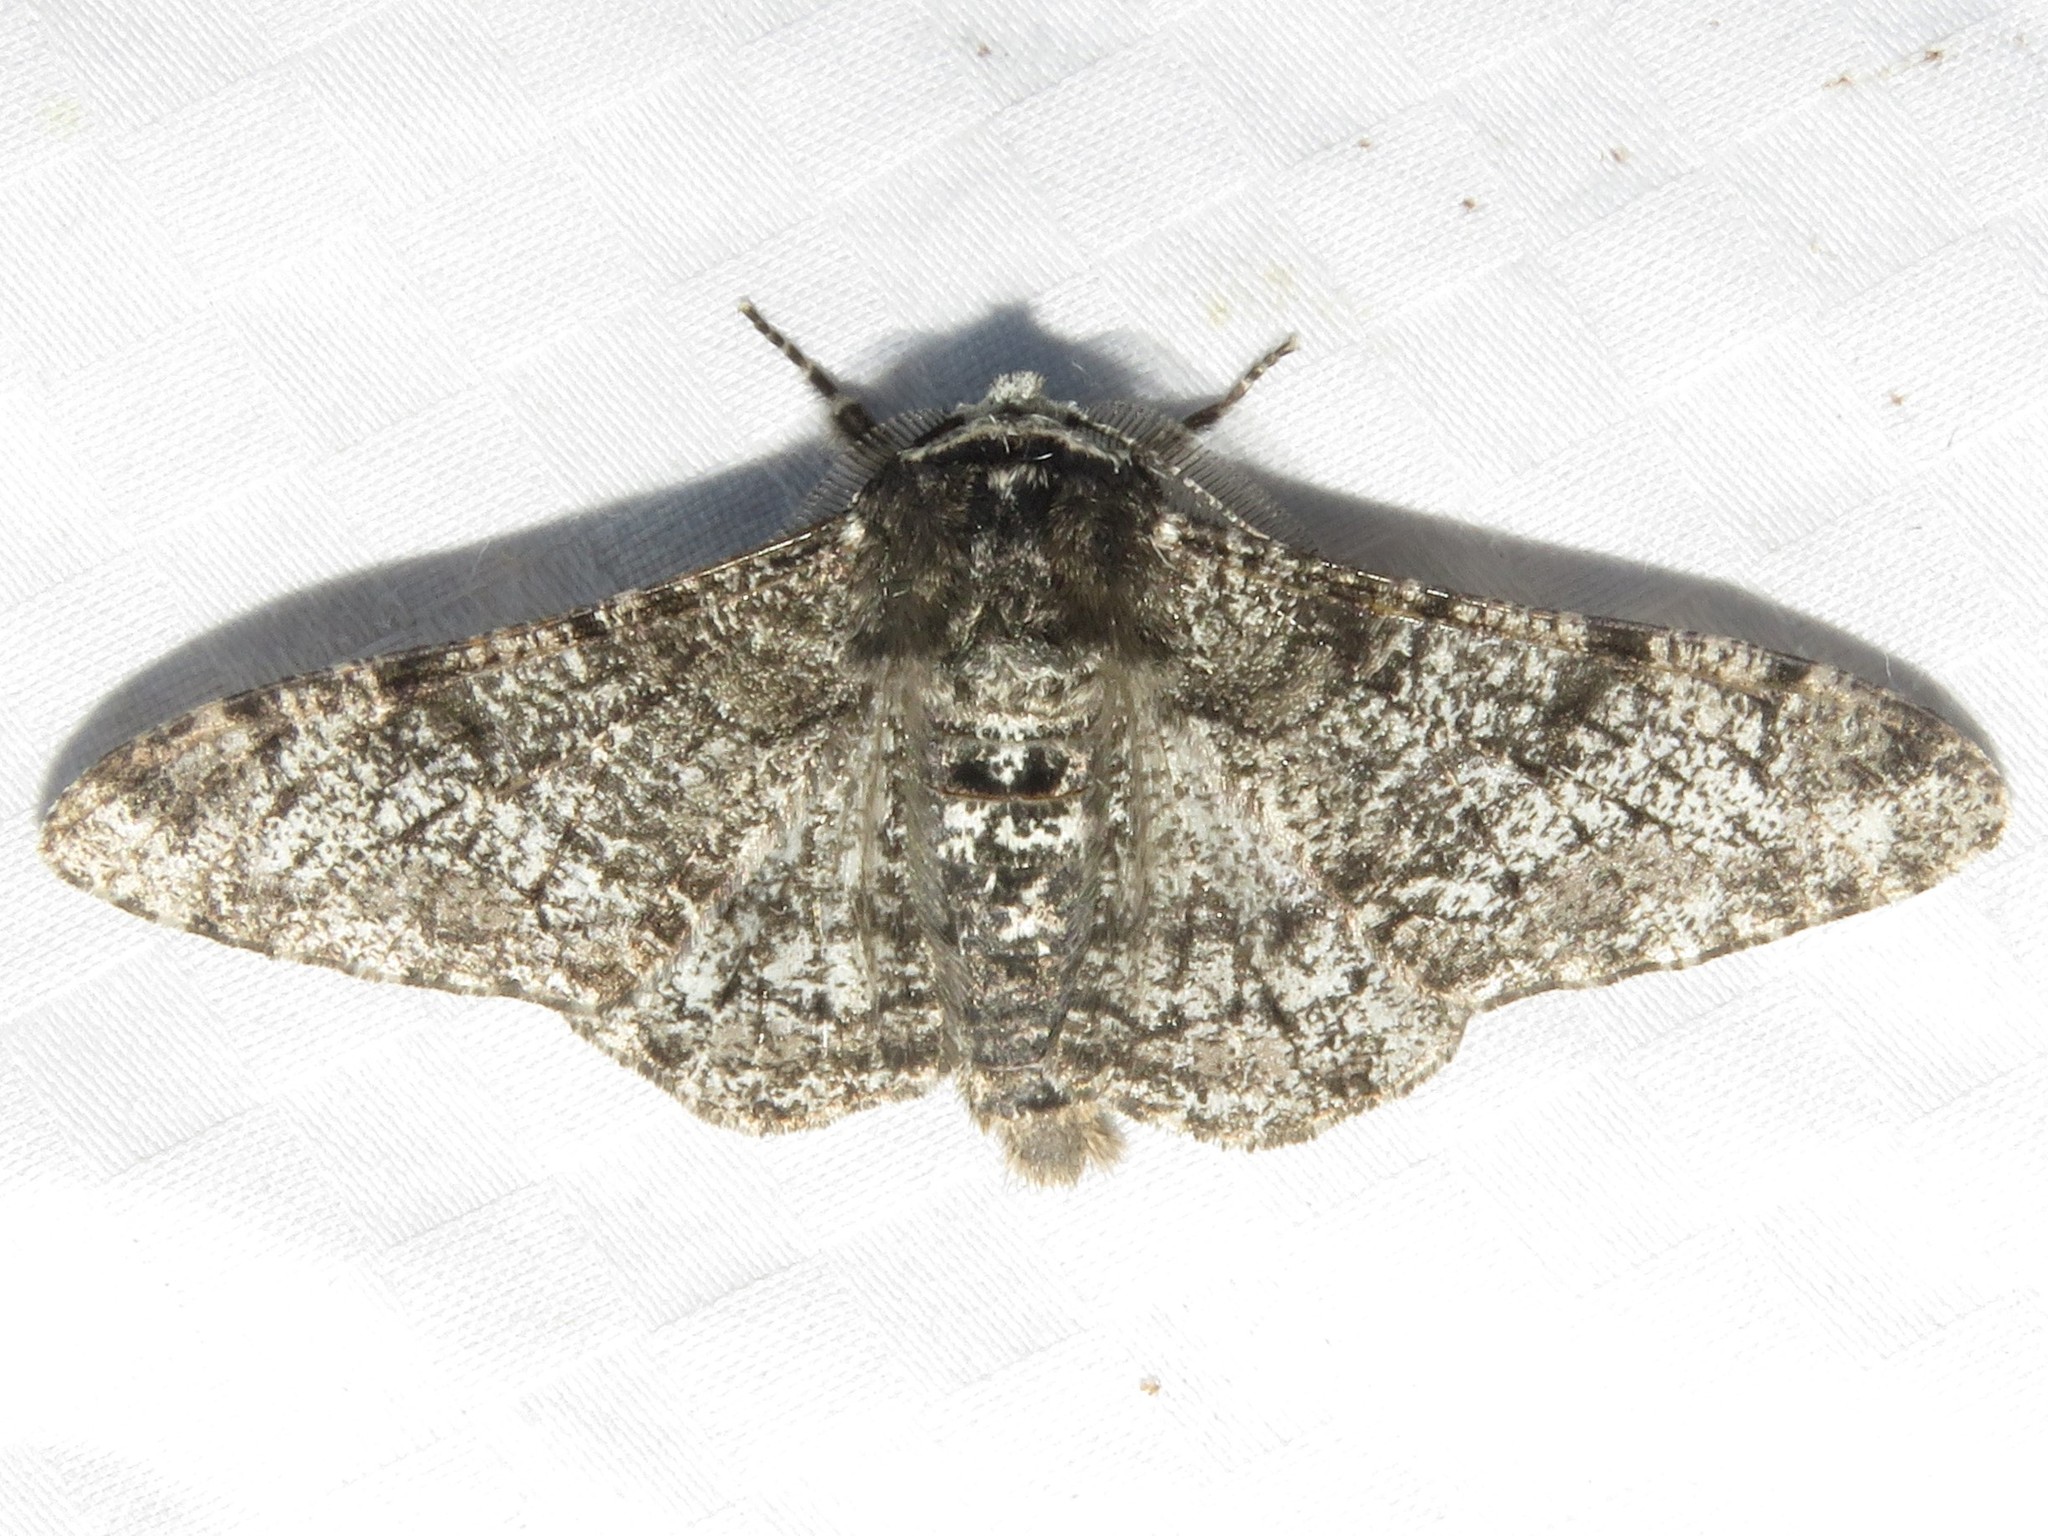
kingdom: Animalia
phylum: Arthropoda
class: Insecta
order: Lepidoptera
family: Geometridae
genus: Biston
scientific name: Biston betularia
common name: Peppered moth
